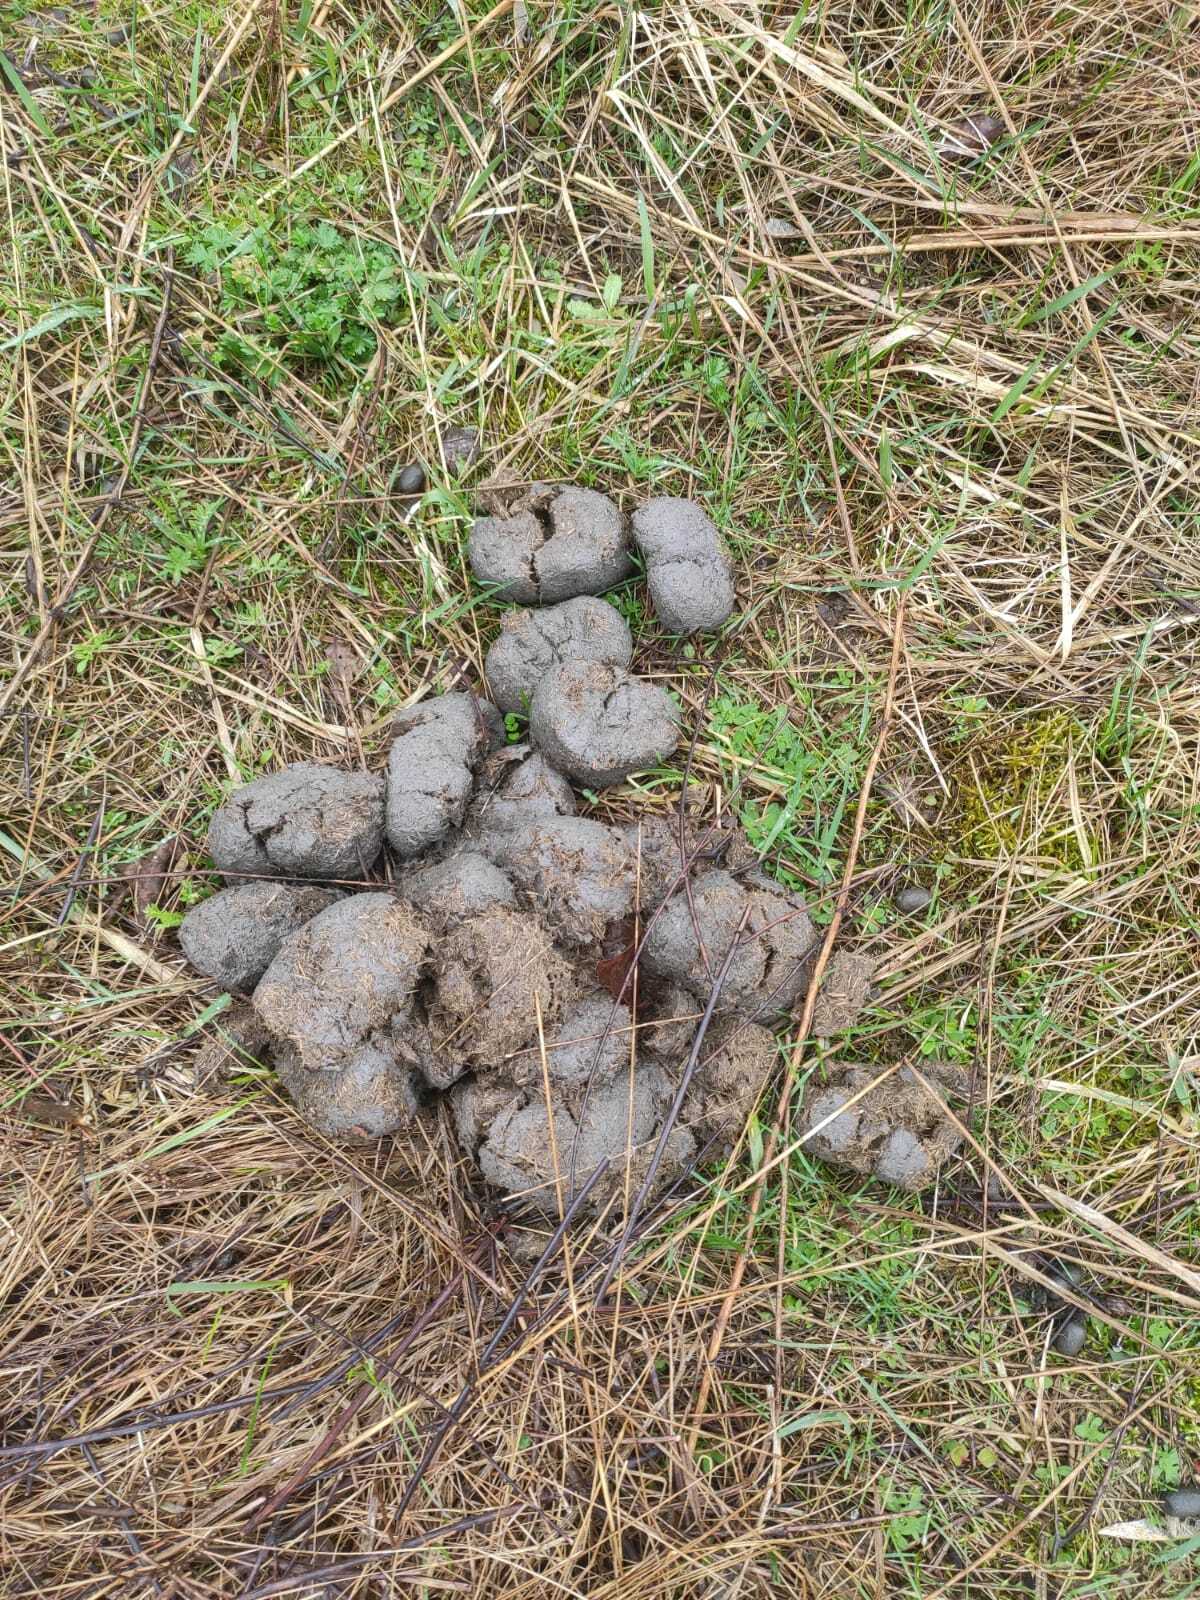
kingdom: Animalia
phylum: Chordata
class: Mammalia
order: Perissodactyla
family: Equidae
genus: Equus
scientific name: Equus przewalskii
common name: Przewalski's horse
